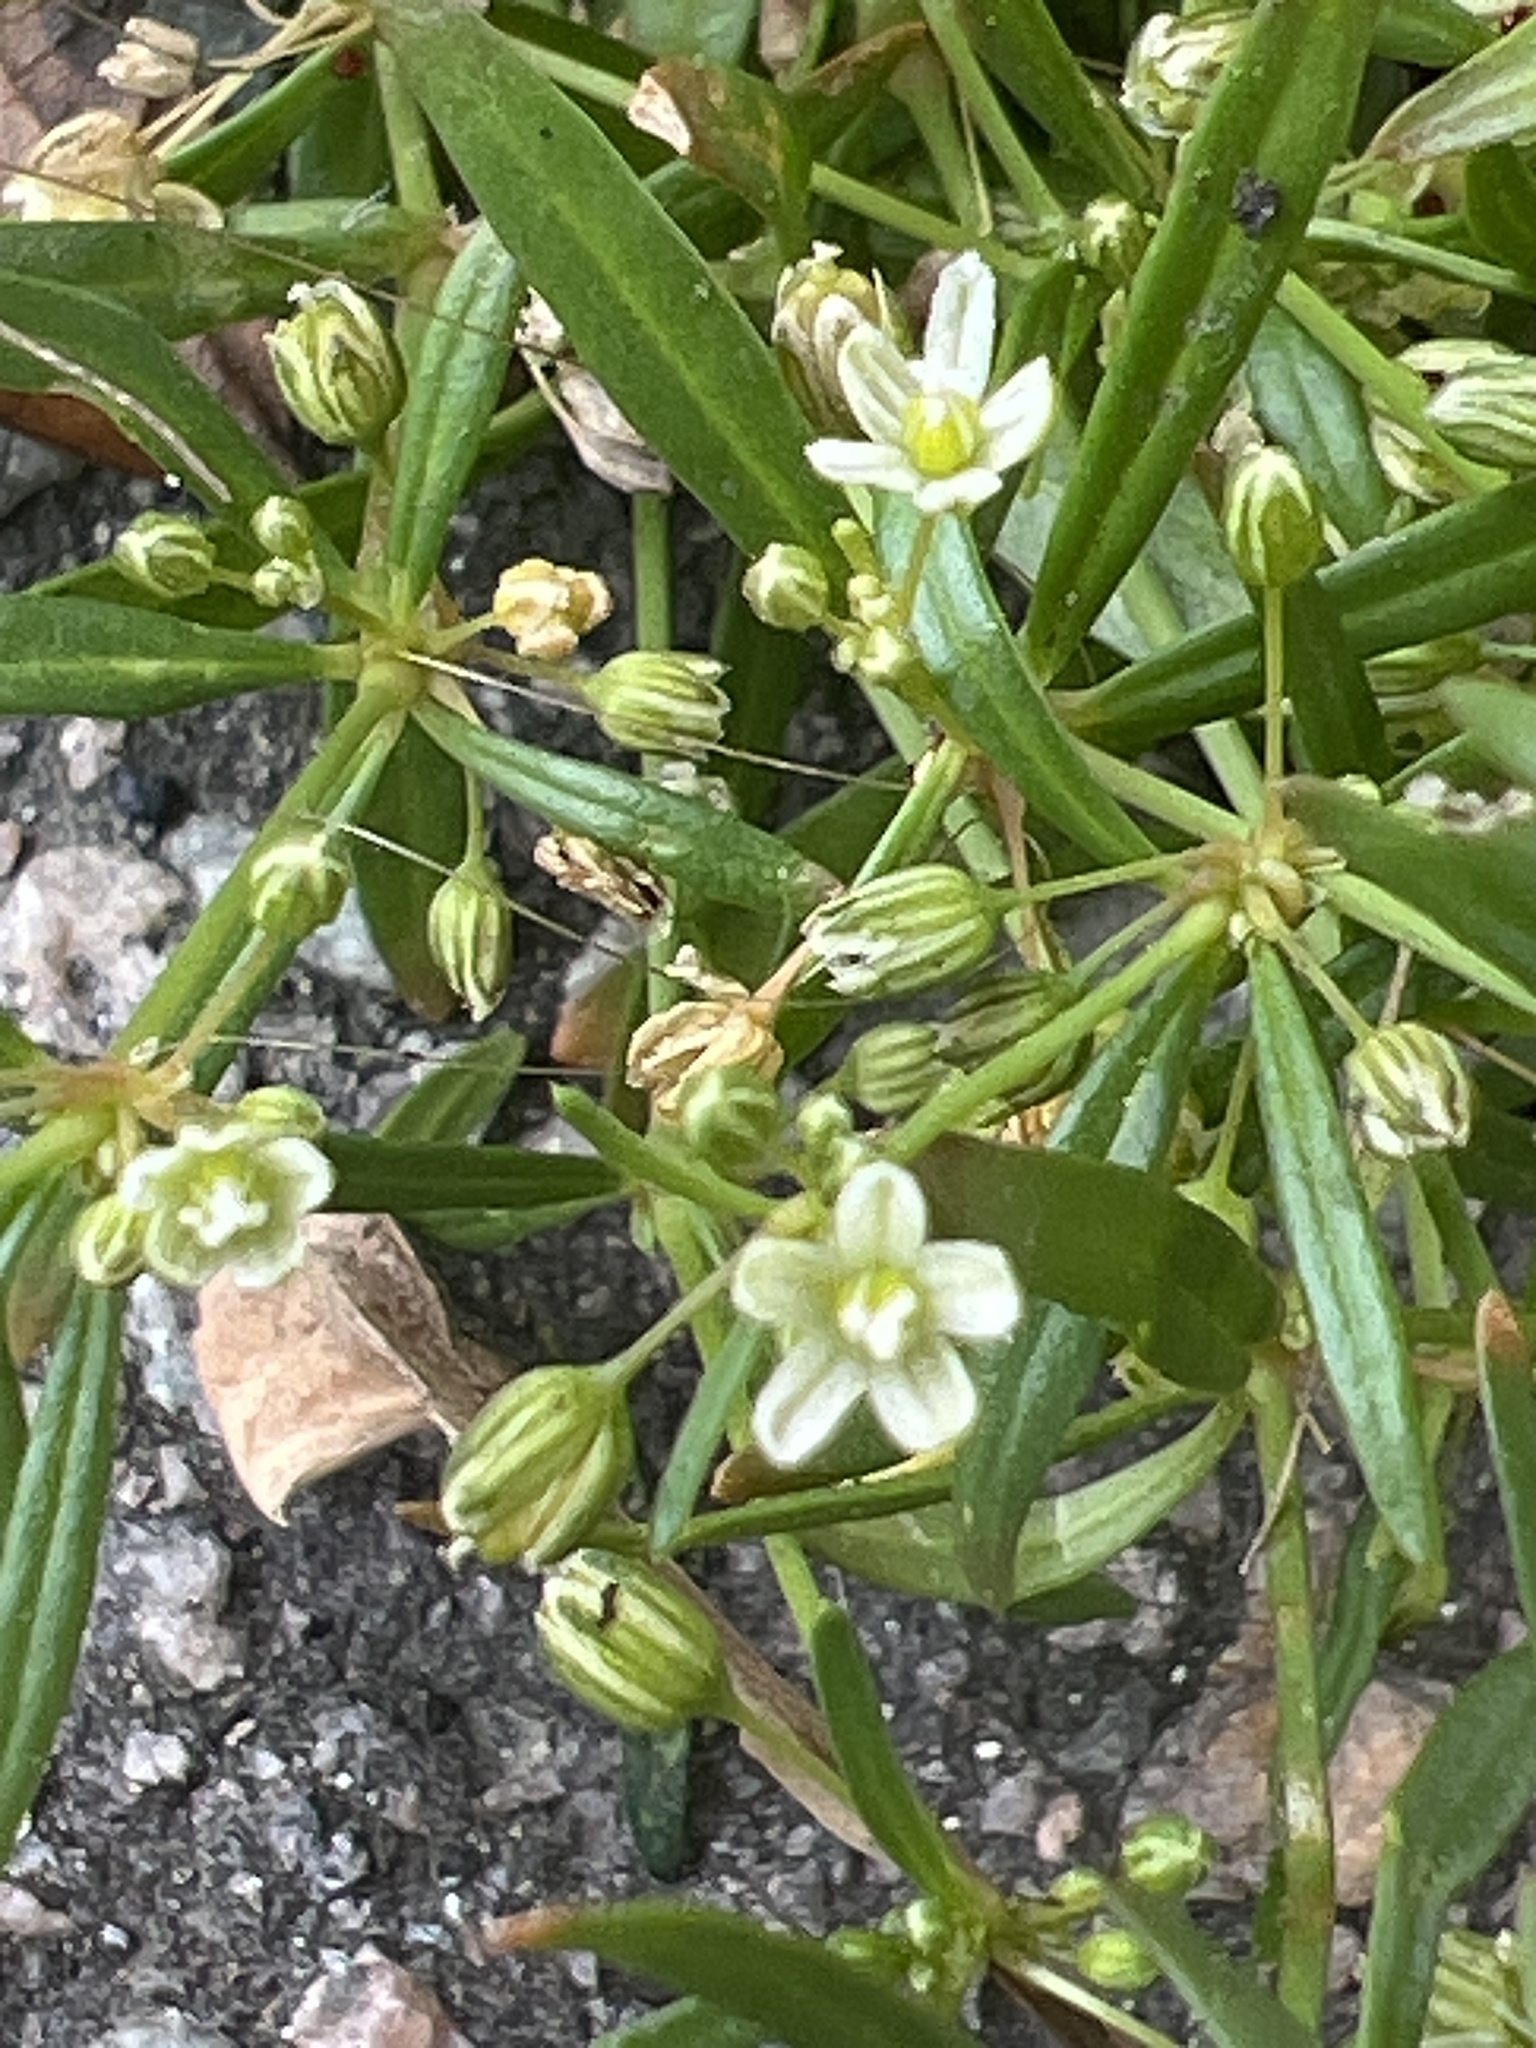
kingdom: Plantae
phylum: Tracheophyta
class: Magnoliopsida
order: Caryophyllales
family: Molluginaceae
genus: Mollugo
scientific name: Mollugo verticillata
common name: Green carpetweed
